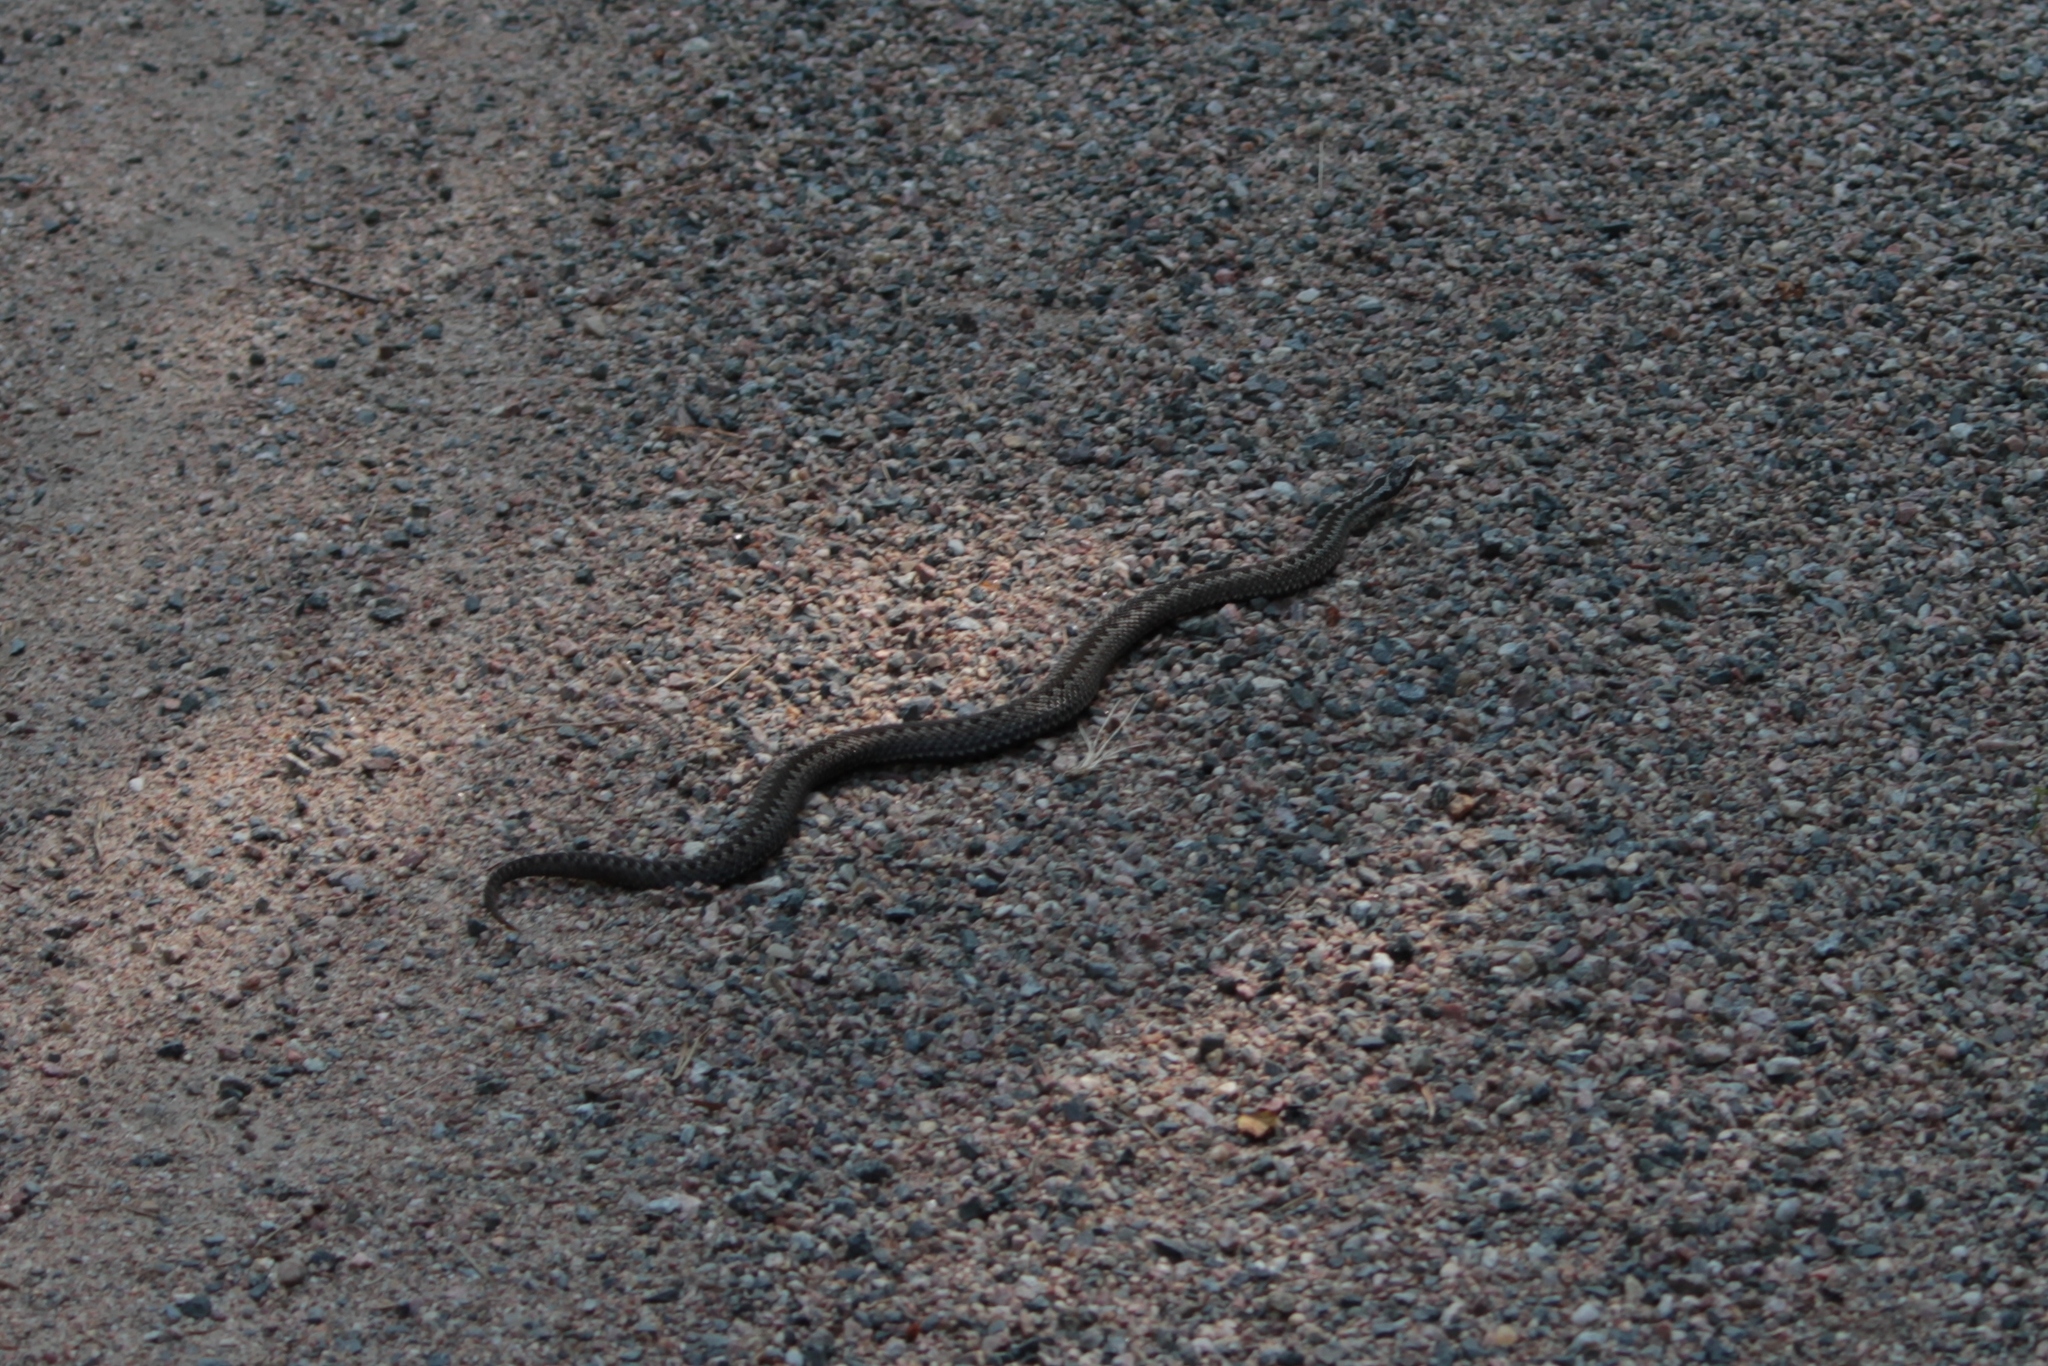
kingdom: Animalia
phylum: Chordata
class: Squamata
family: Viperidae
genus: Vipera
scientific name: Vipera berus
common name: Adder
